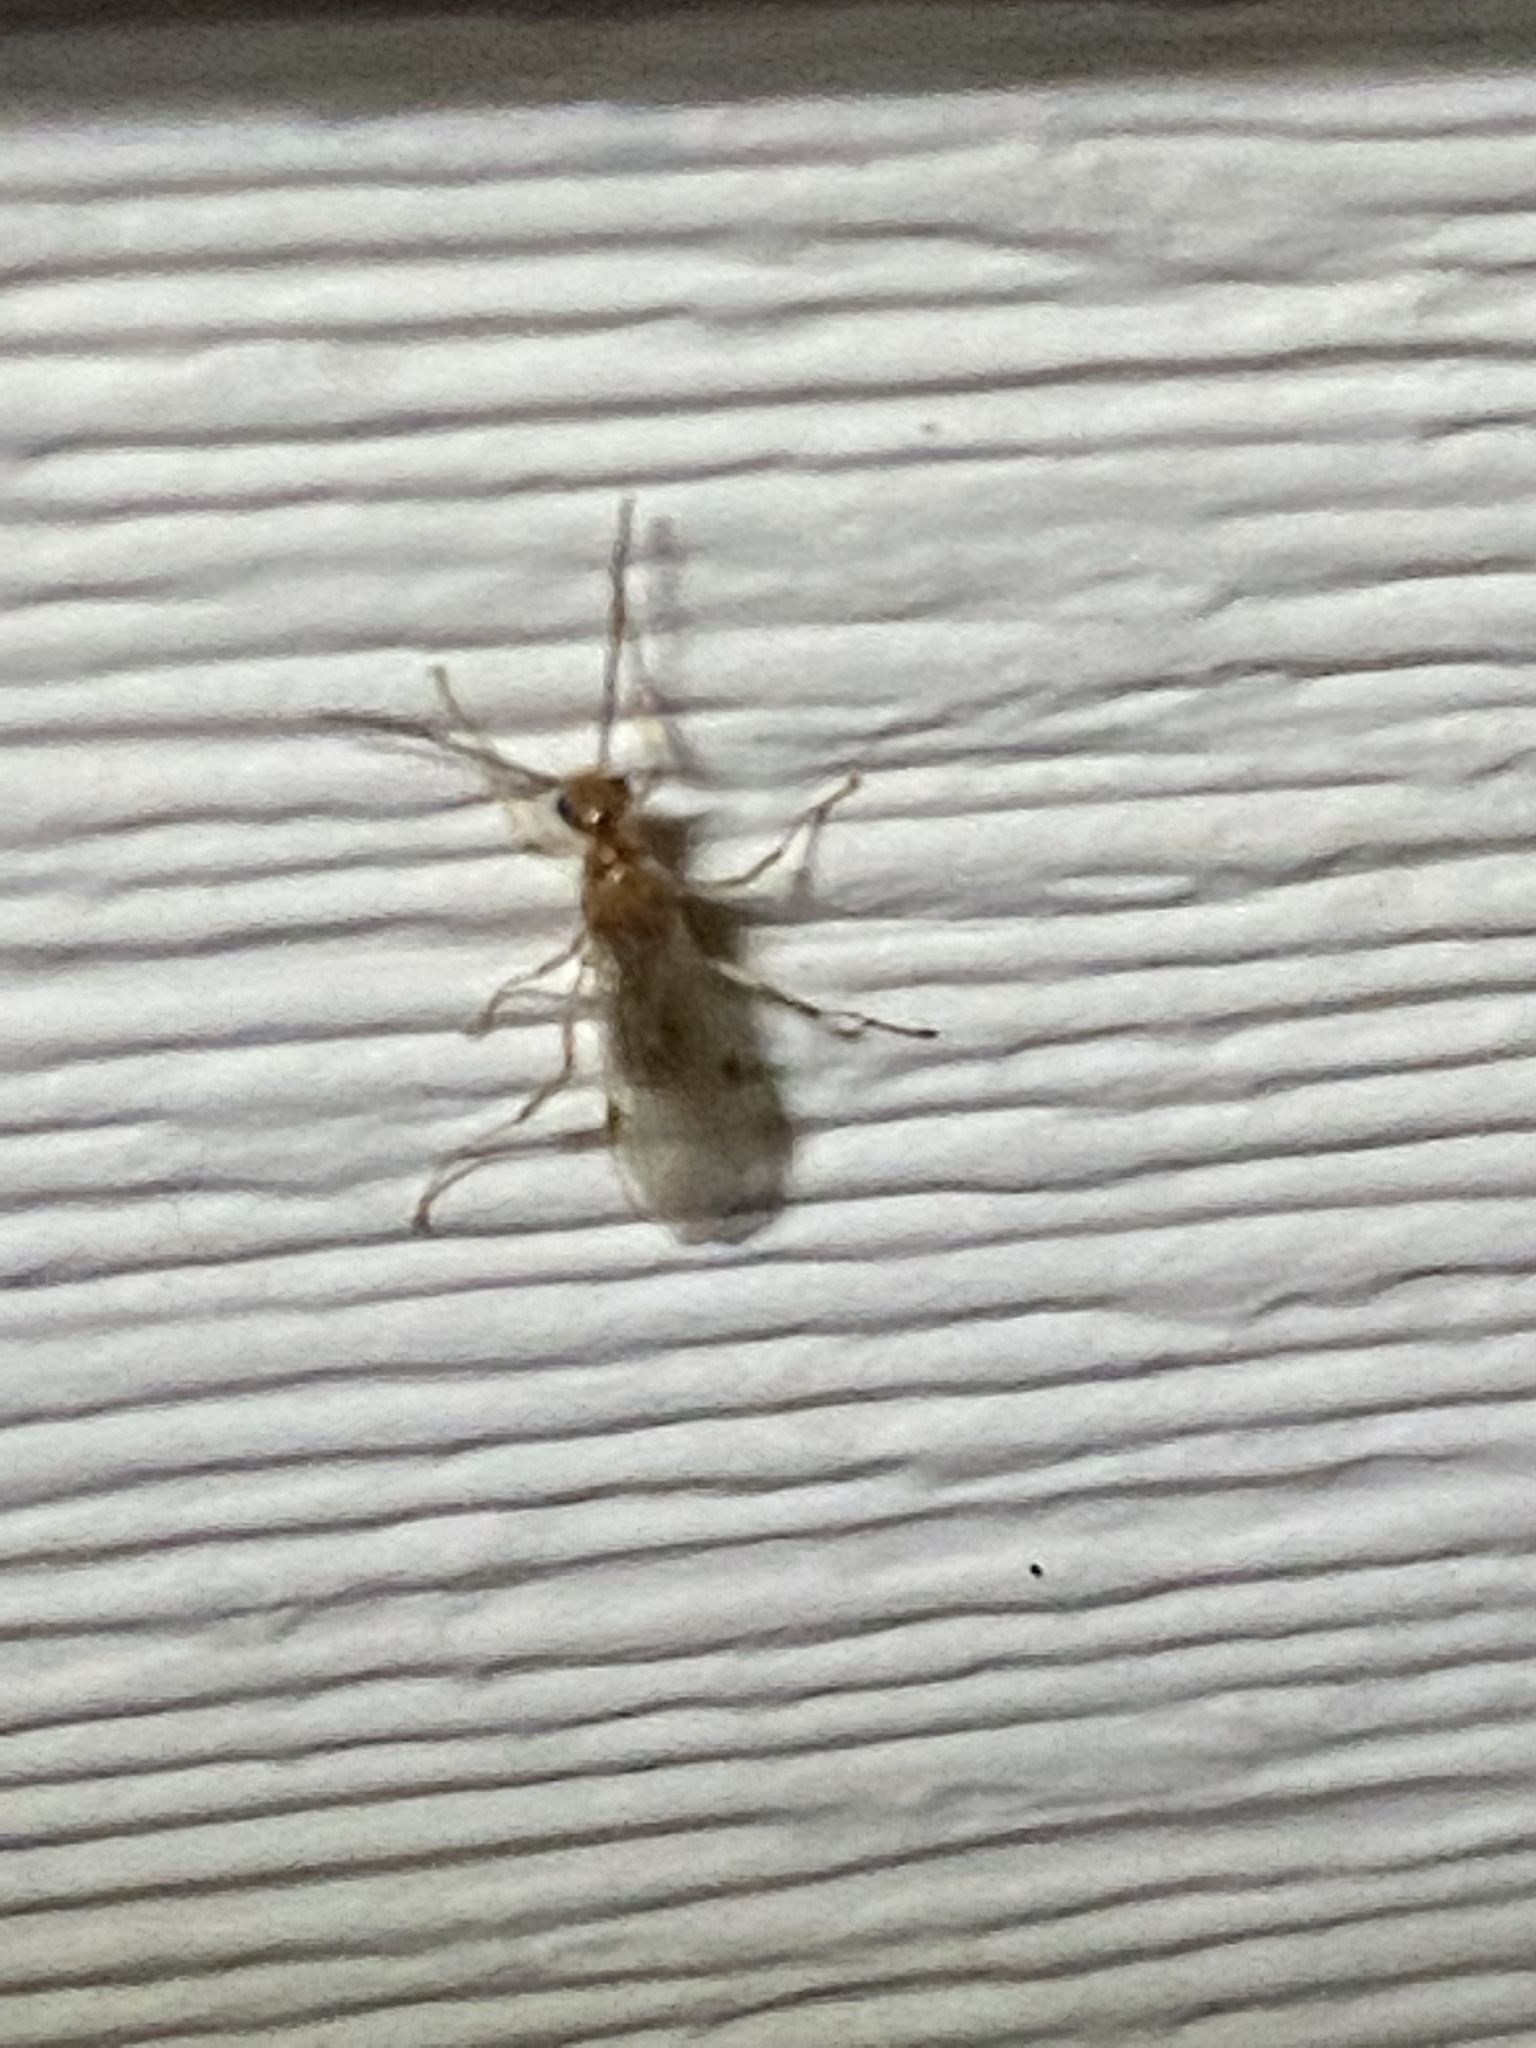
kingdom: Animalia
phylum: Arthropoda
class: Insecta
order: Hymenoptera
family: Formicidae
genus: Pachycondyla
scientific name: Pachycondyla chinensis
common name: Asian needle ant
